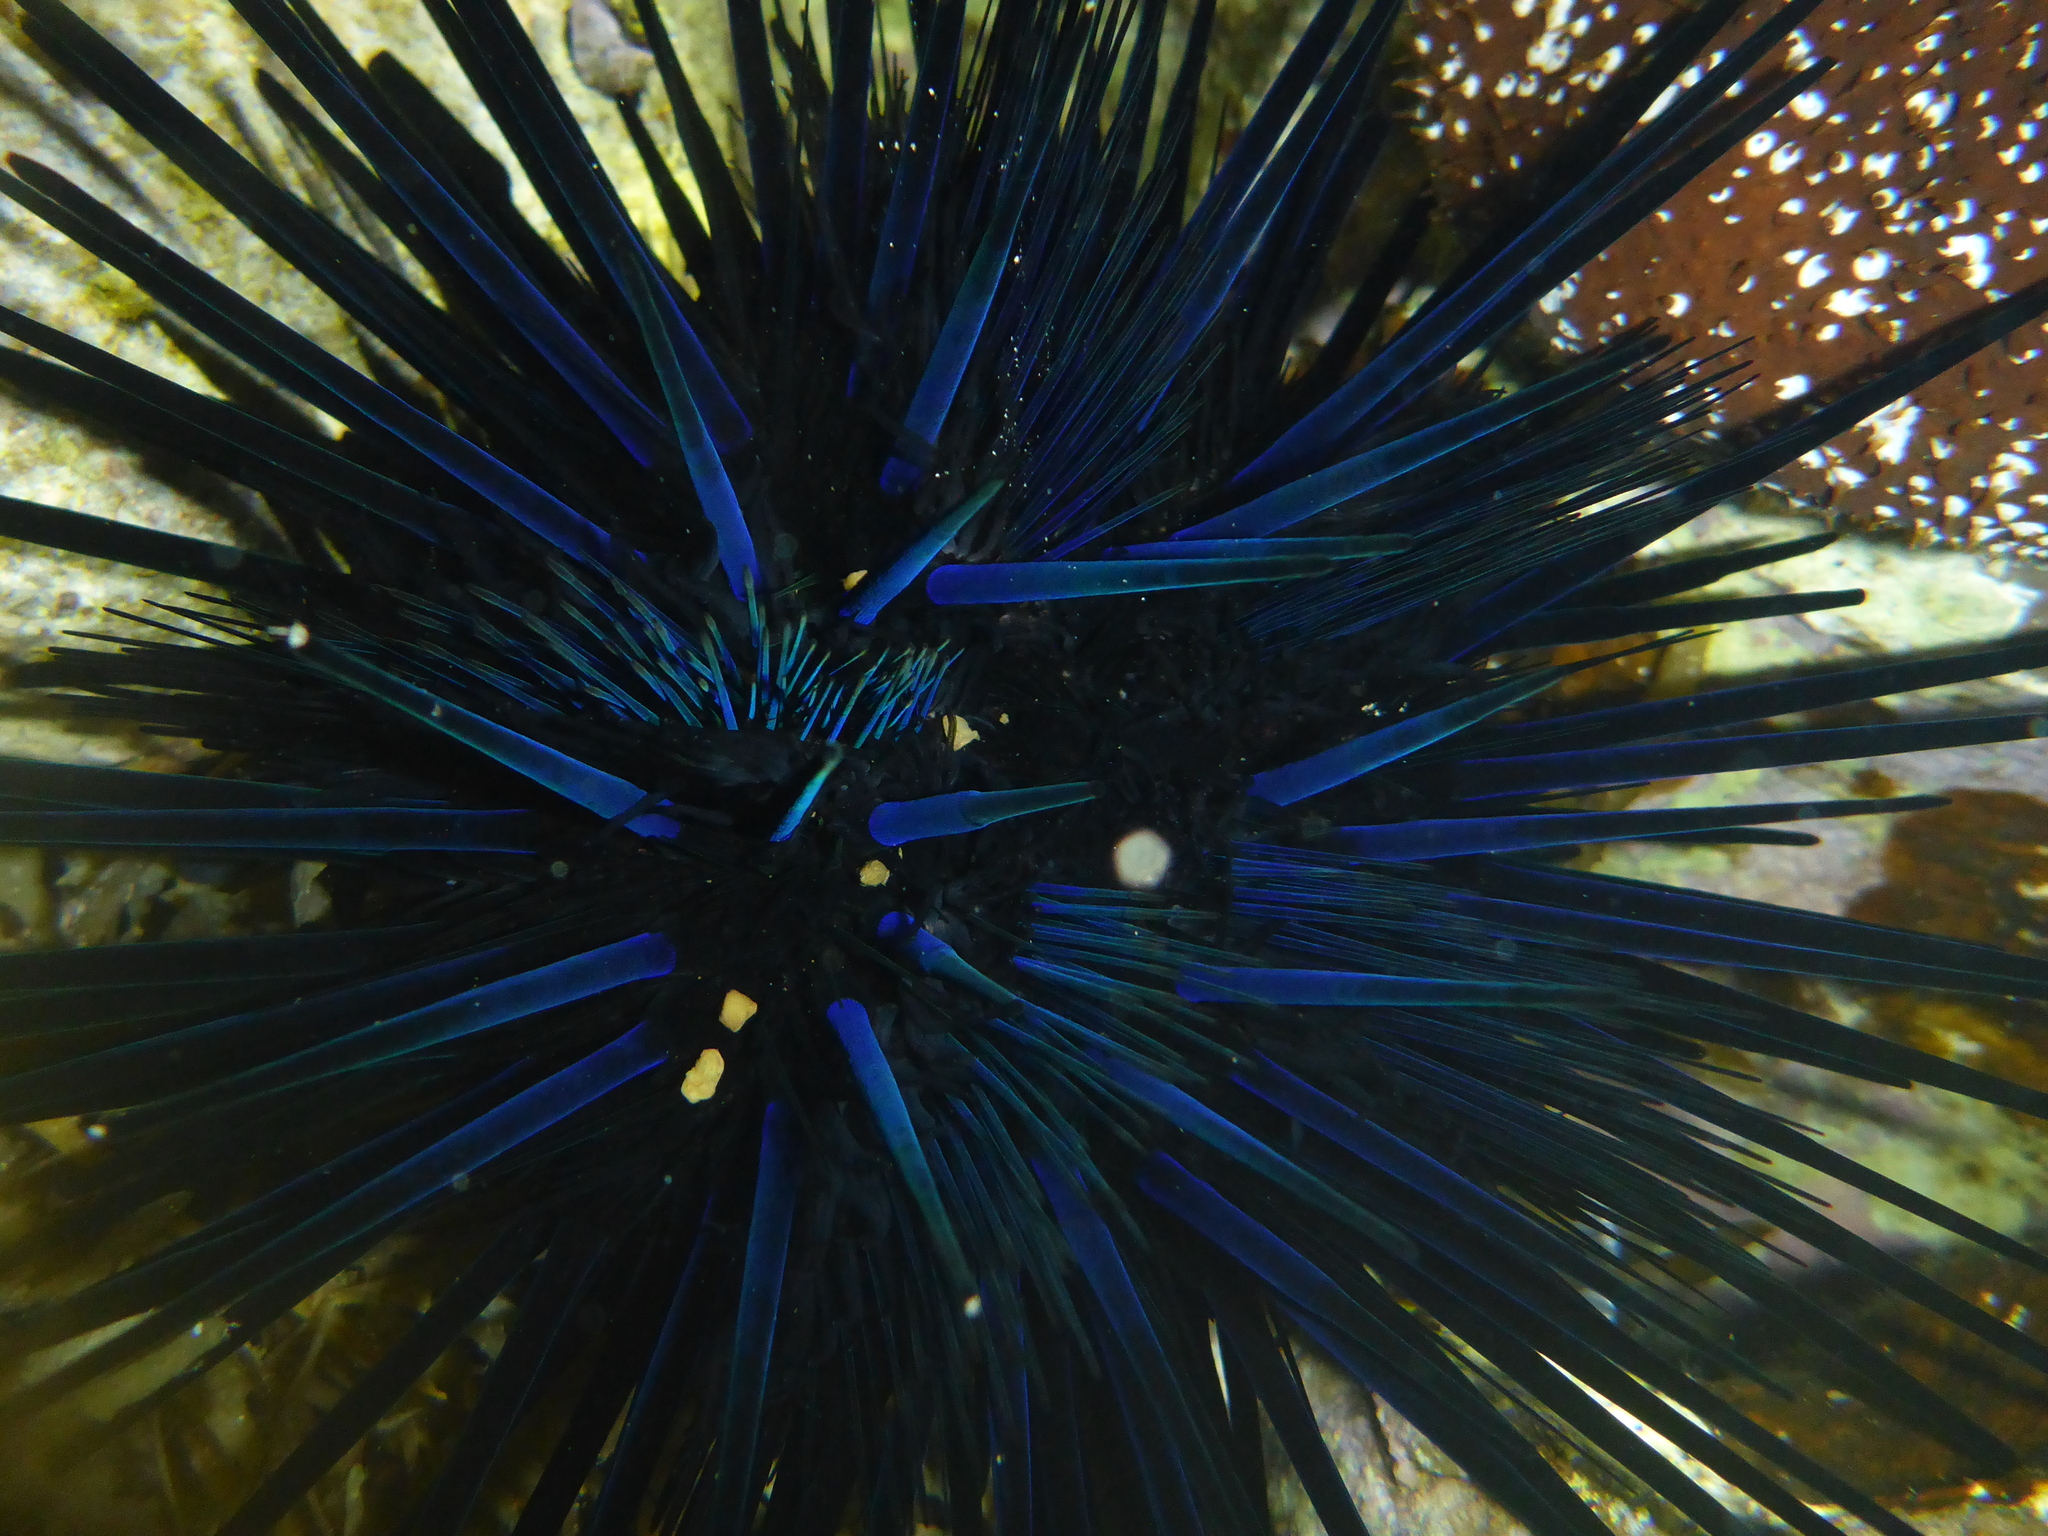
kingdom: Animalia
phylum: Echinodermata
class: Echinoidea
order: Diadematoida
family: Diadematidae
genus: Echinothrix
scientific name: Echinothrix diadema
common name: Schwarzer diademseeigel
